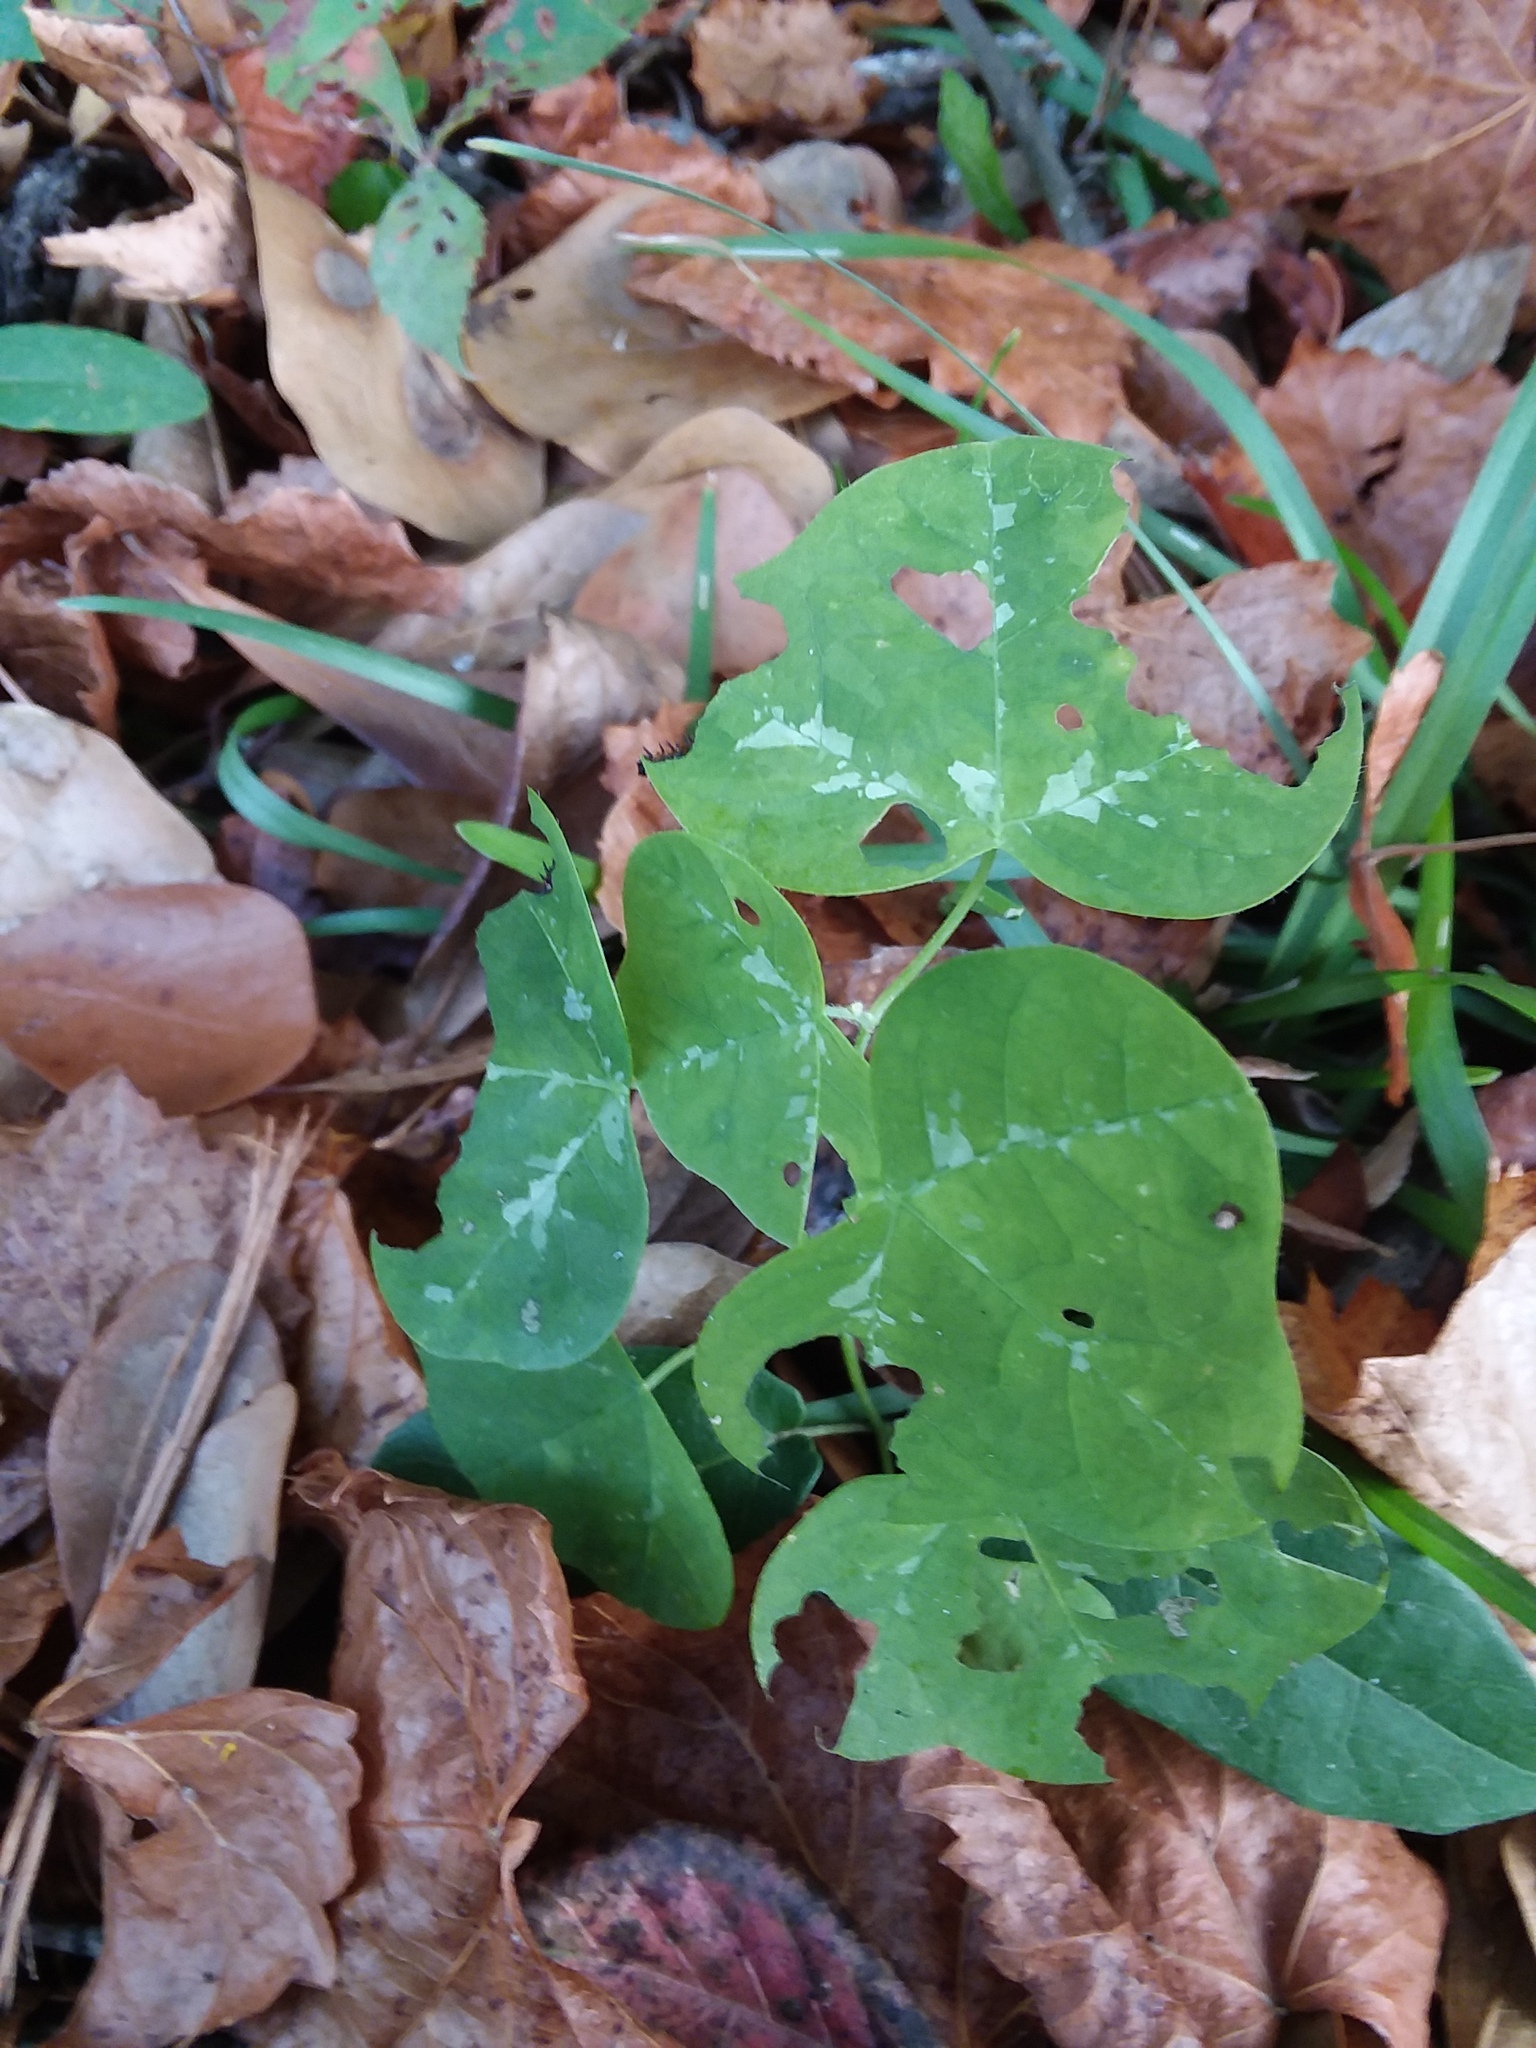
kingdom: Plantae
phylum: Tracheophyta
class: Magnoliopsida
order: Malpighiales
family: Passifloraceae
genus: Passiflora
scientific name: Passiflora lutea
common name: Yellow passionflower
